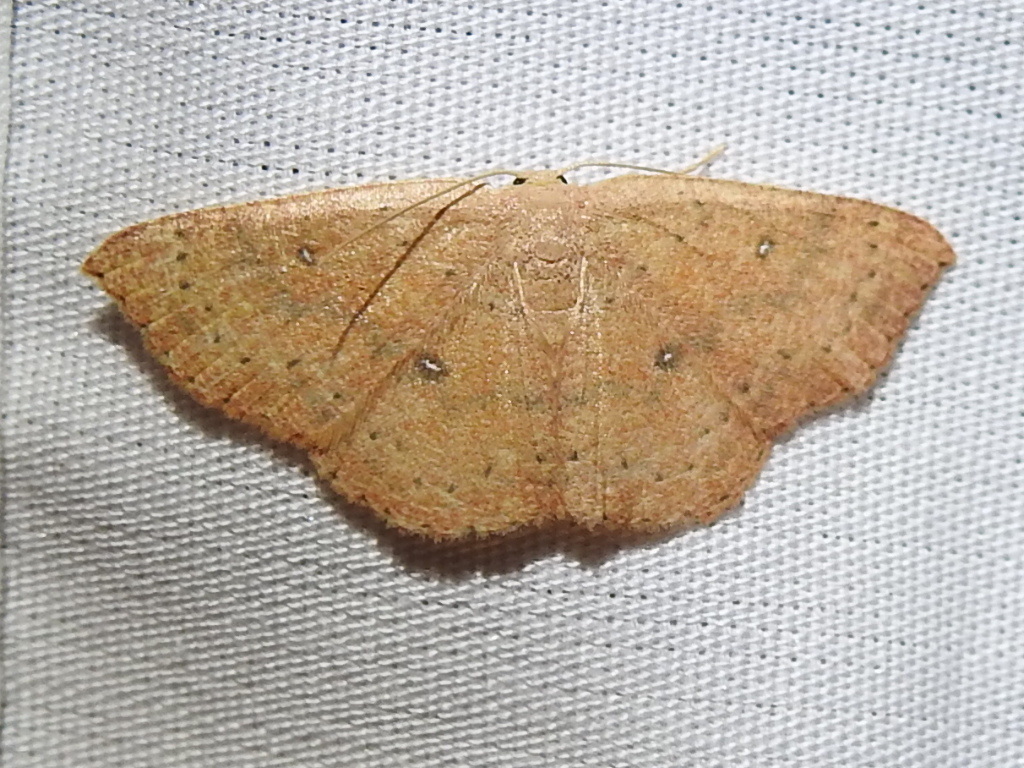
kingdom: Animalia
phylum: Arthropoda
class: Insecta
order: Lepidoptera
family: Geometridae
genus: Cyclophora
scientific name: Cyclophora packardi
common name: Packard's wave
